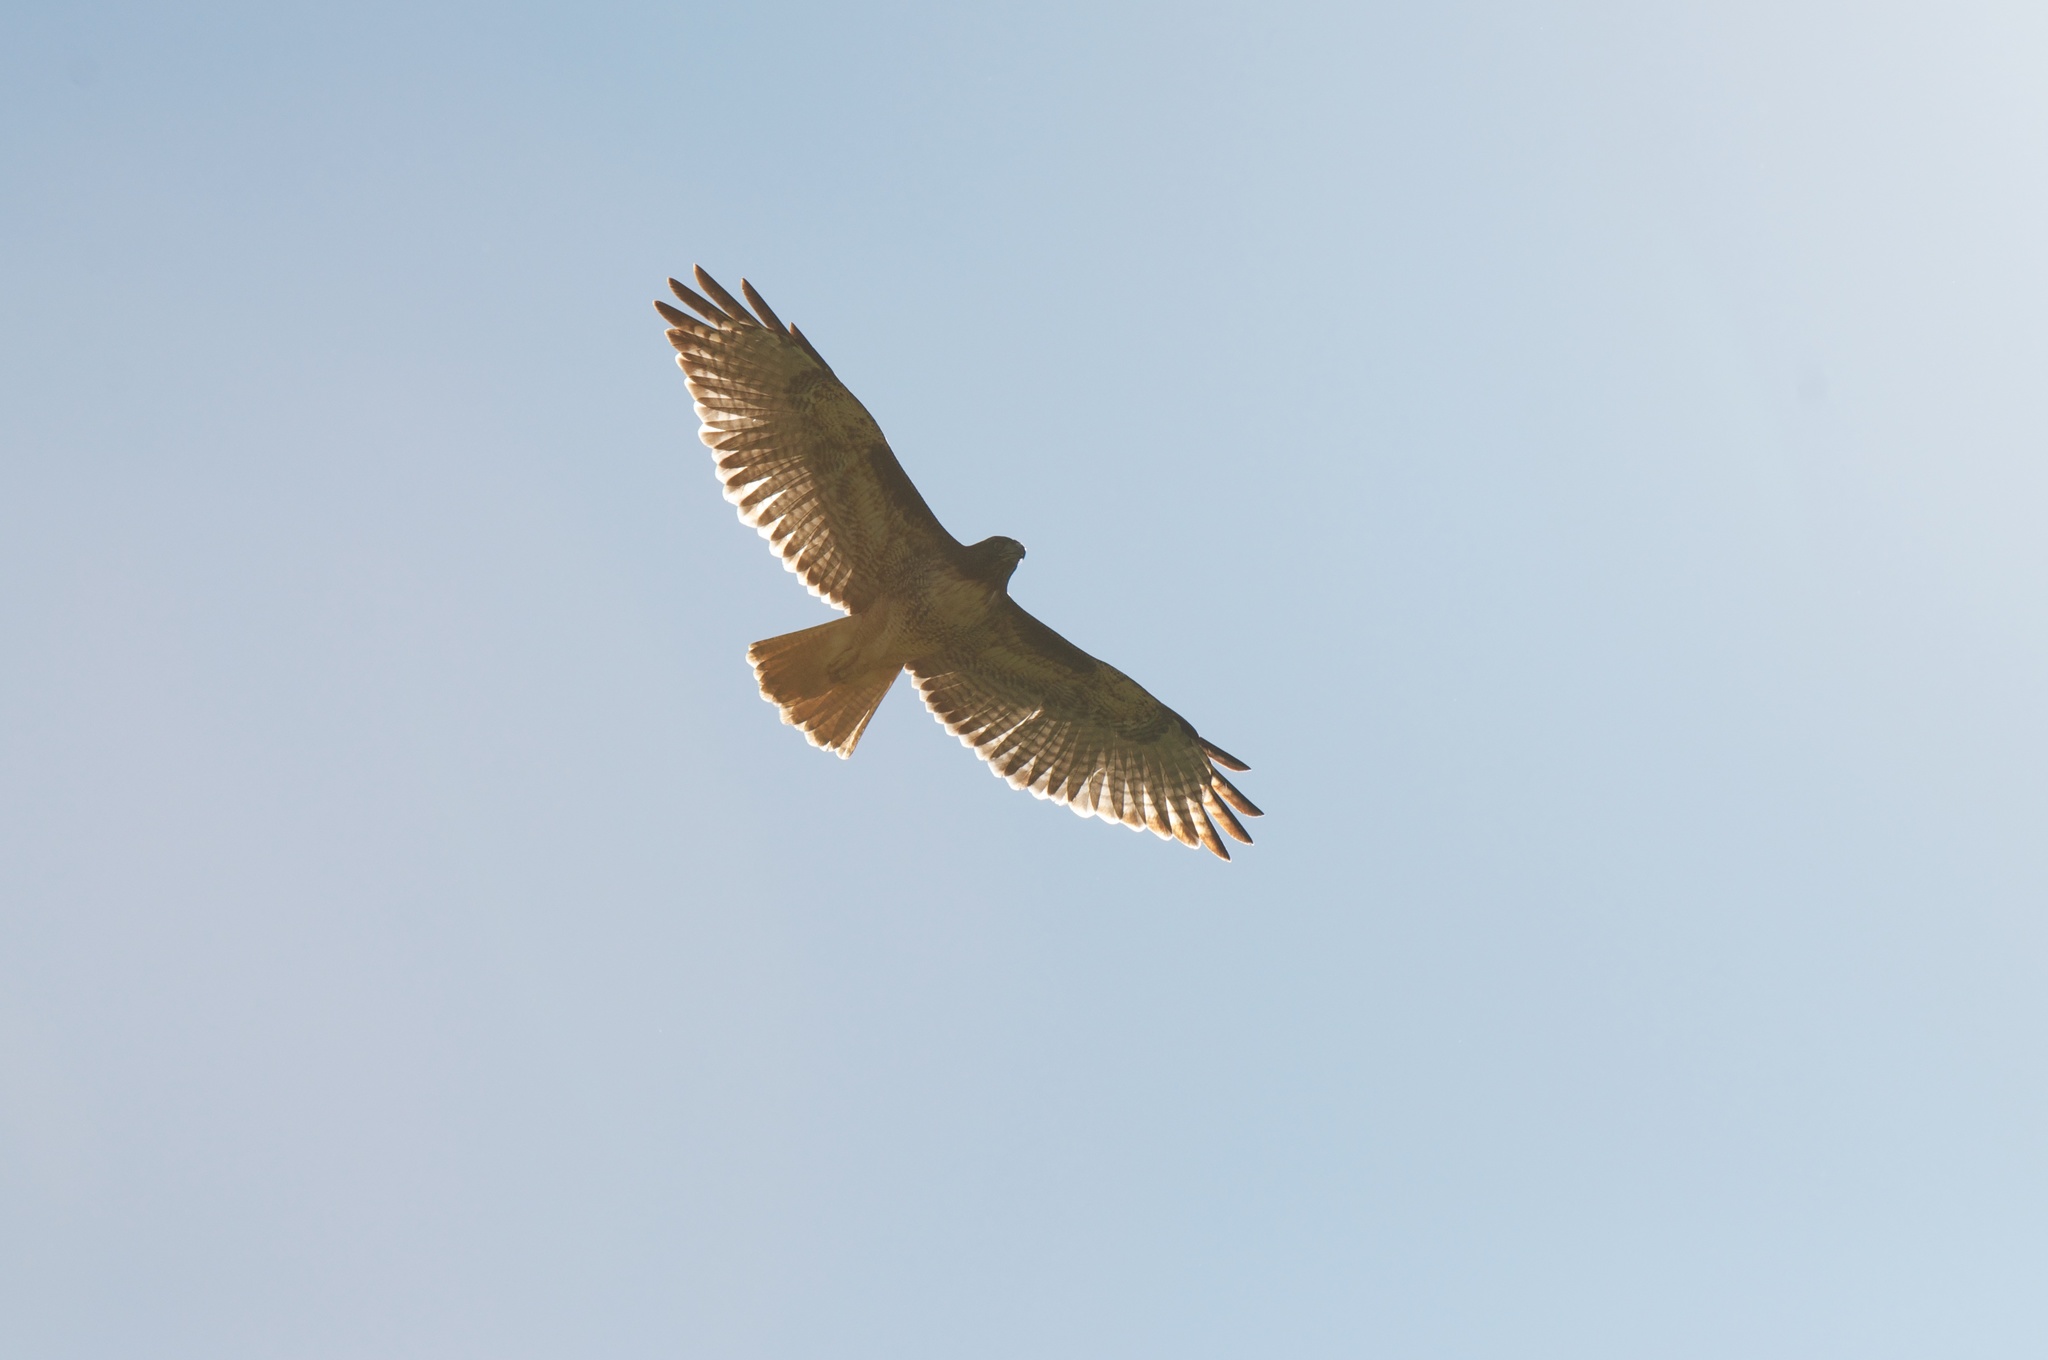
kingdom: Animalia
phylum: Chordata
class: Aves
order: Accipitriformes
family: Accipitridae
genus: Buteo
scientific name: Buteo jamaicensis
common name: Red-tailed hawk
